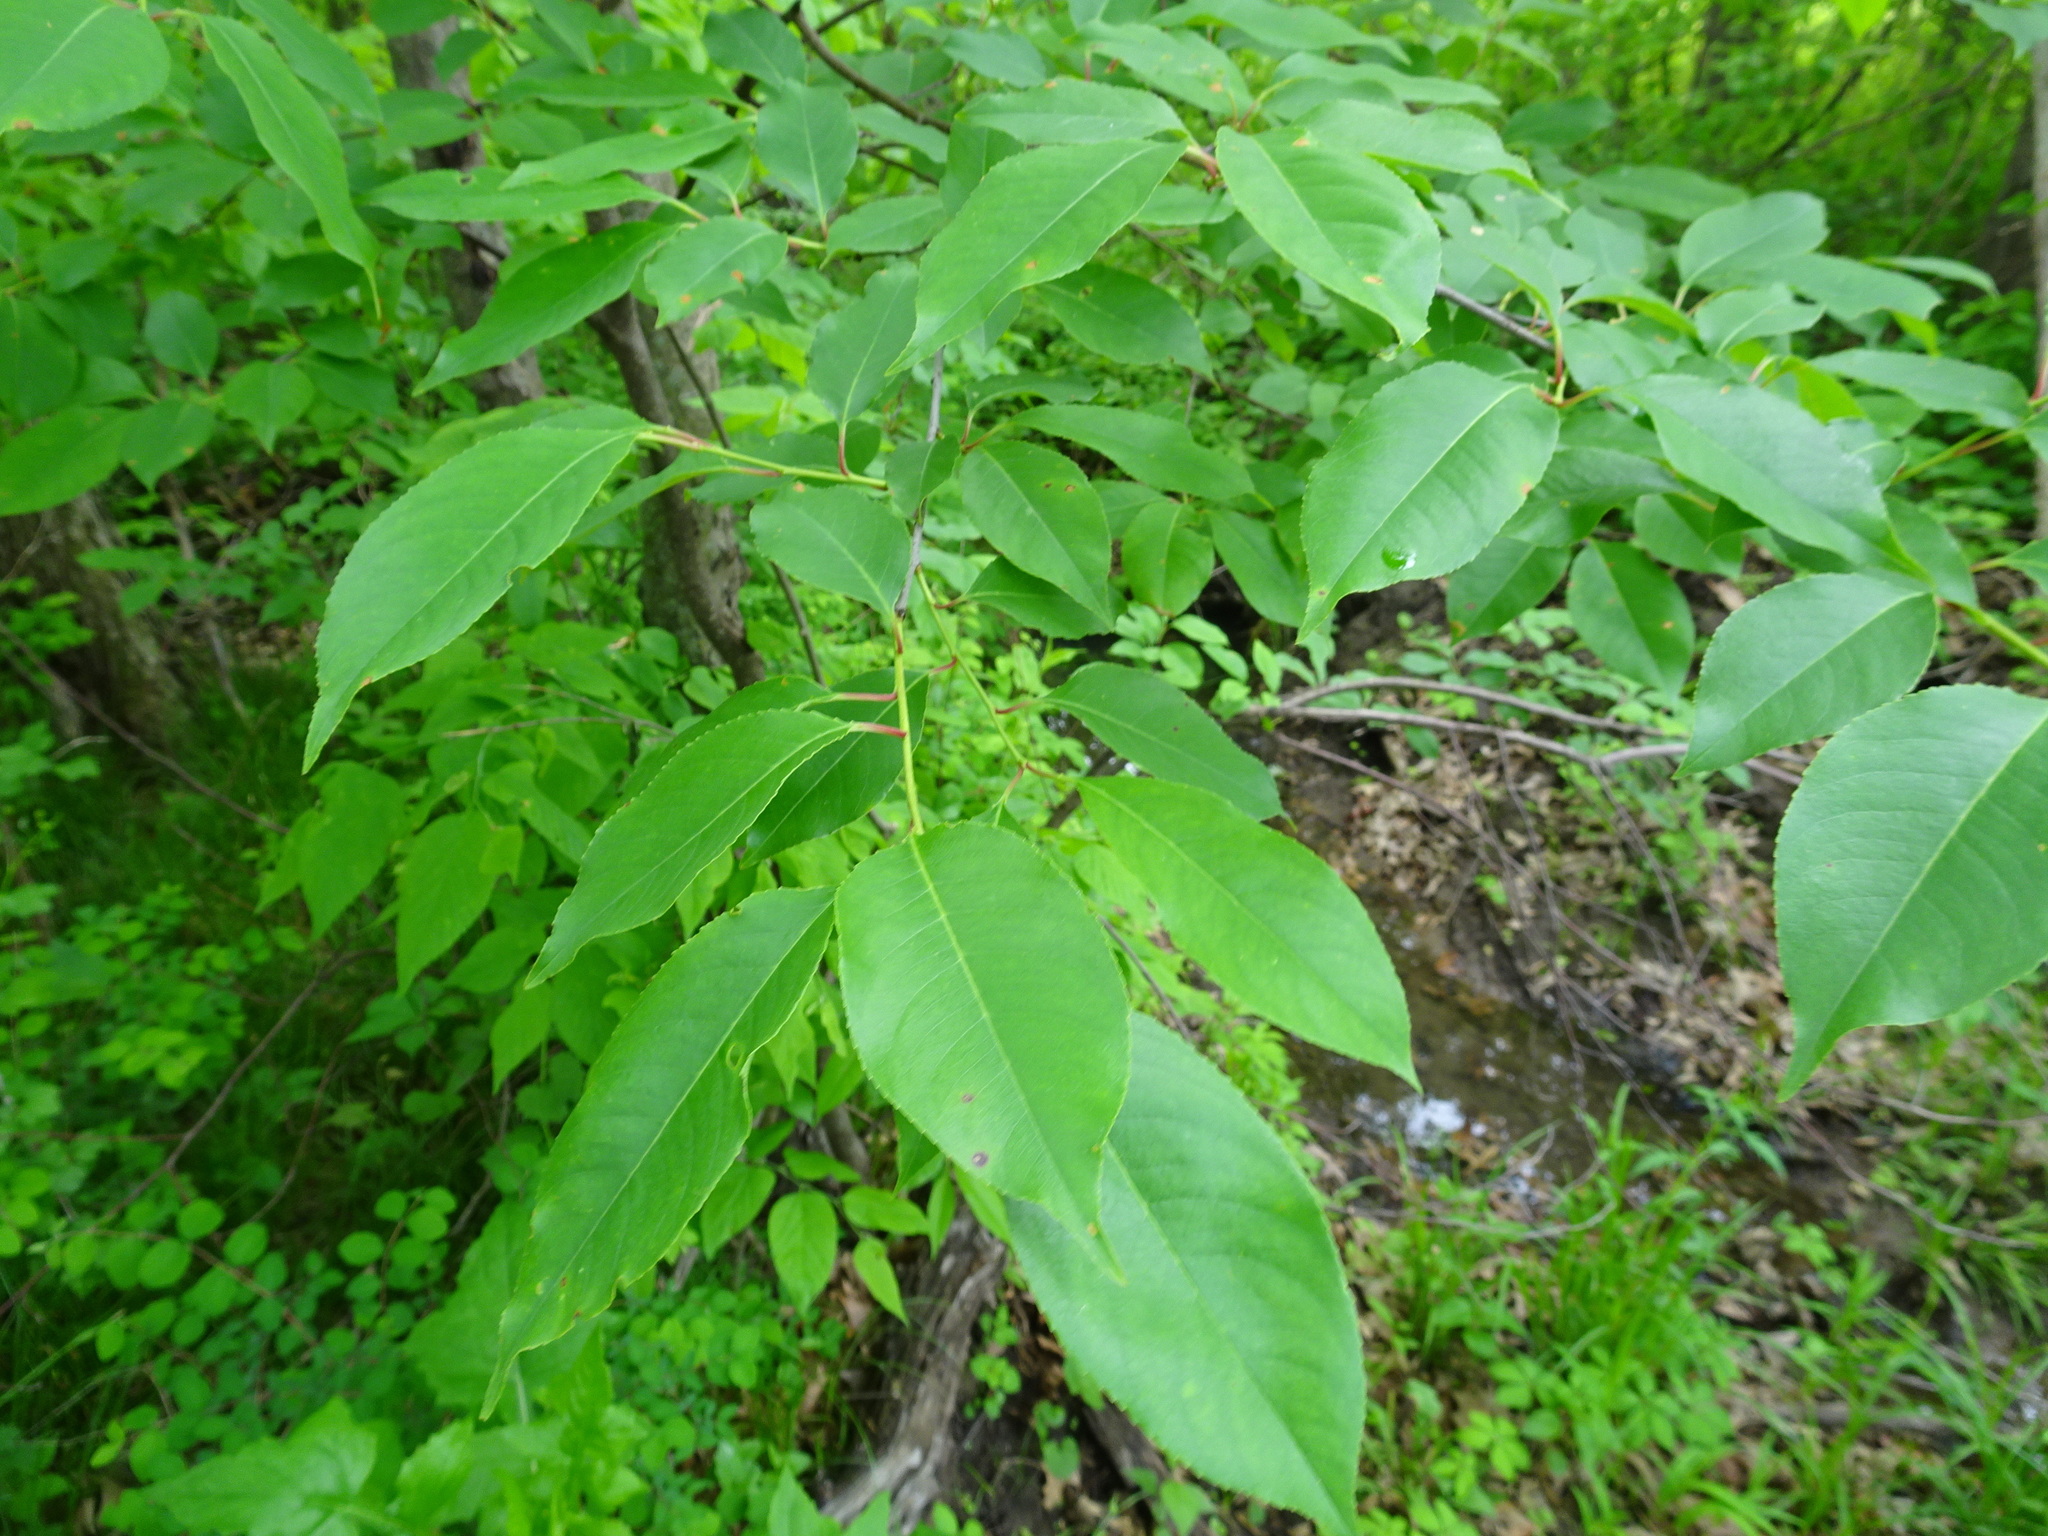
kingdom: Plantae
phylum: Tracheophyta
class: Magnoliopsida
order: Rosales
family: Rosaceae
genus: Prunus
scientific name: Prunus serotina
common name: Black cherry
